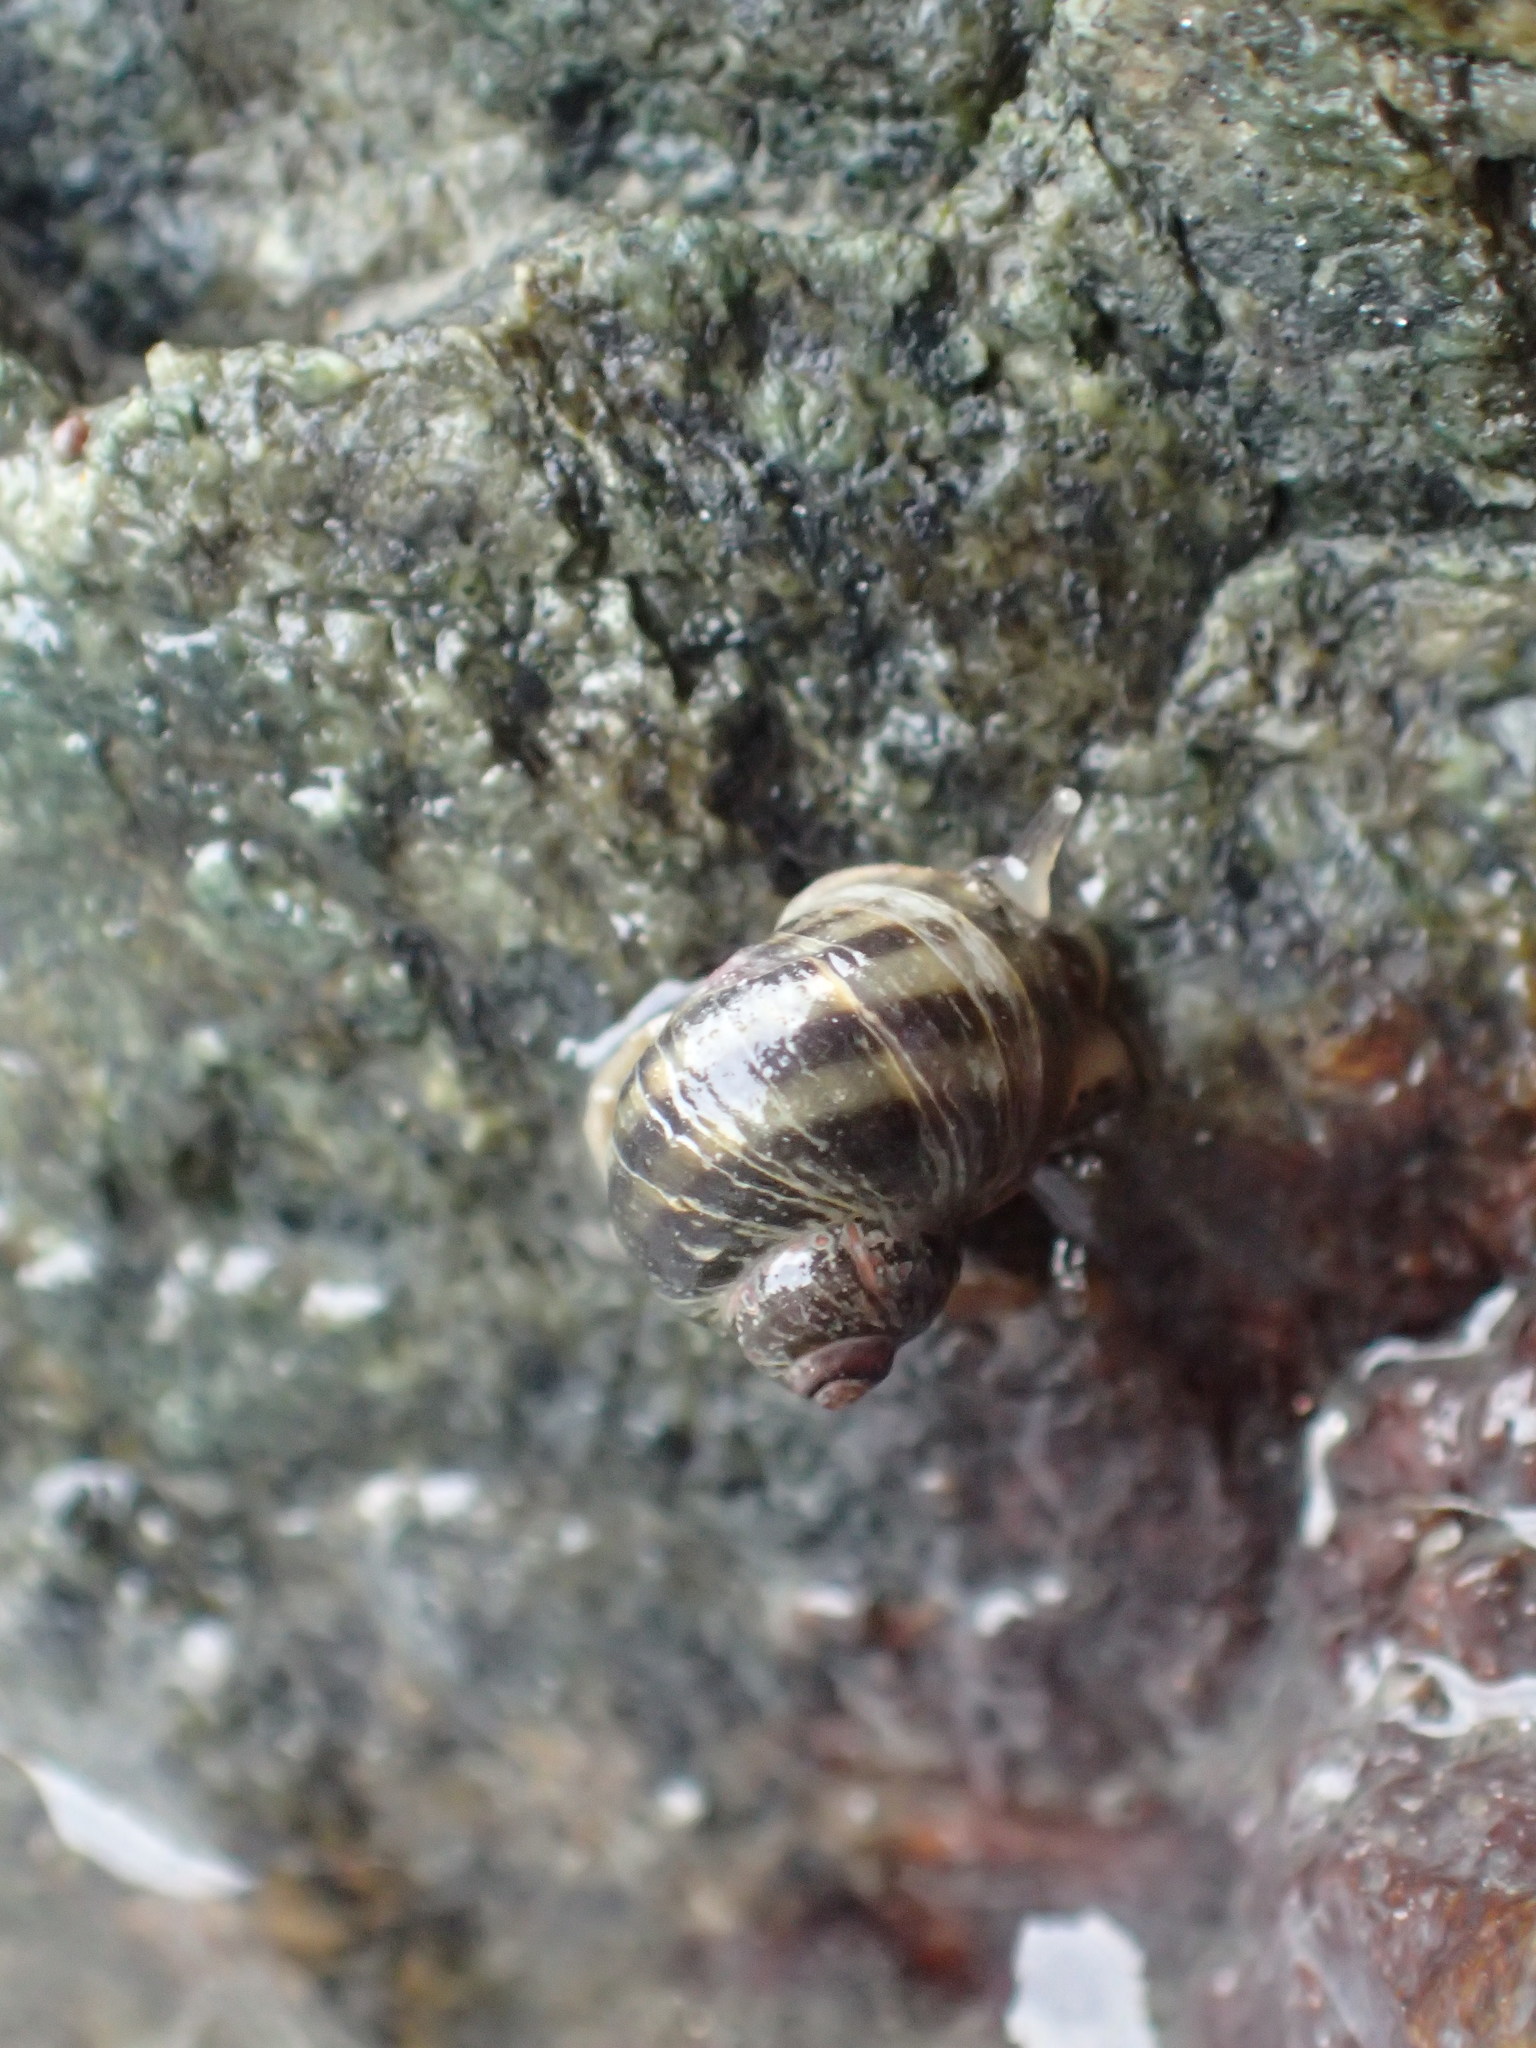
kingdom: Animalia
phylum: Mollusca
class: Gastropoda
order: Littorinimorpha
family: Littorinidae
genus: Littorina
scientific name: Littorina subrotundata
